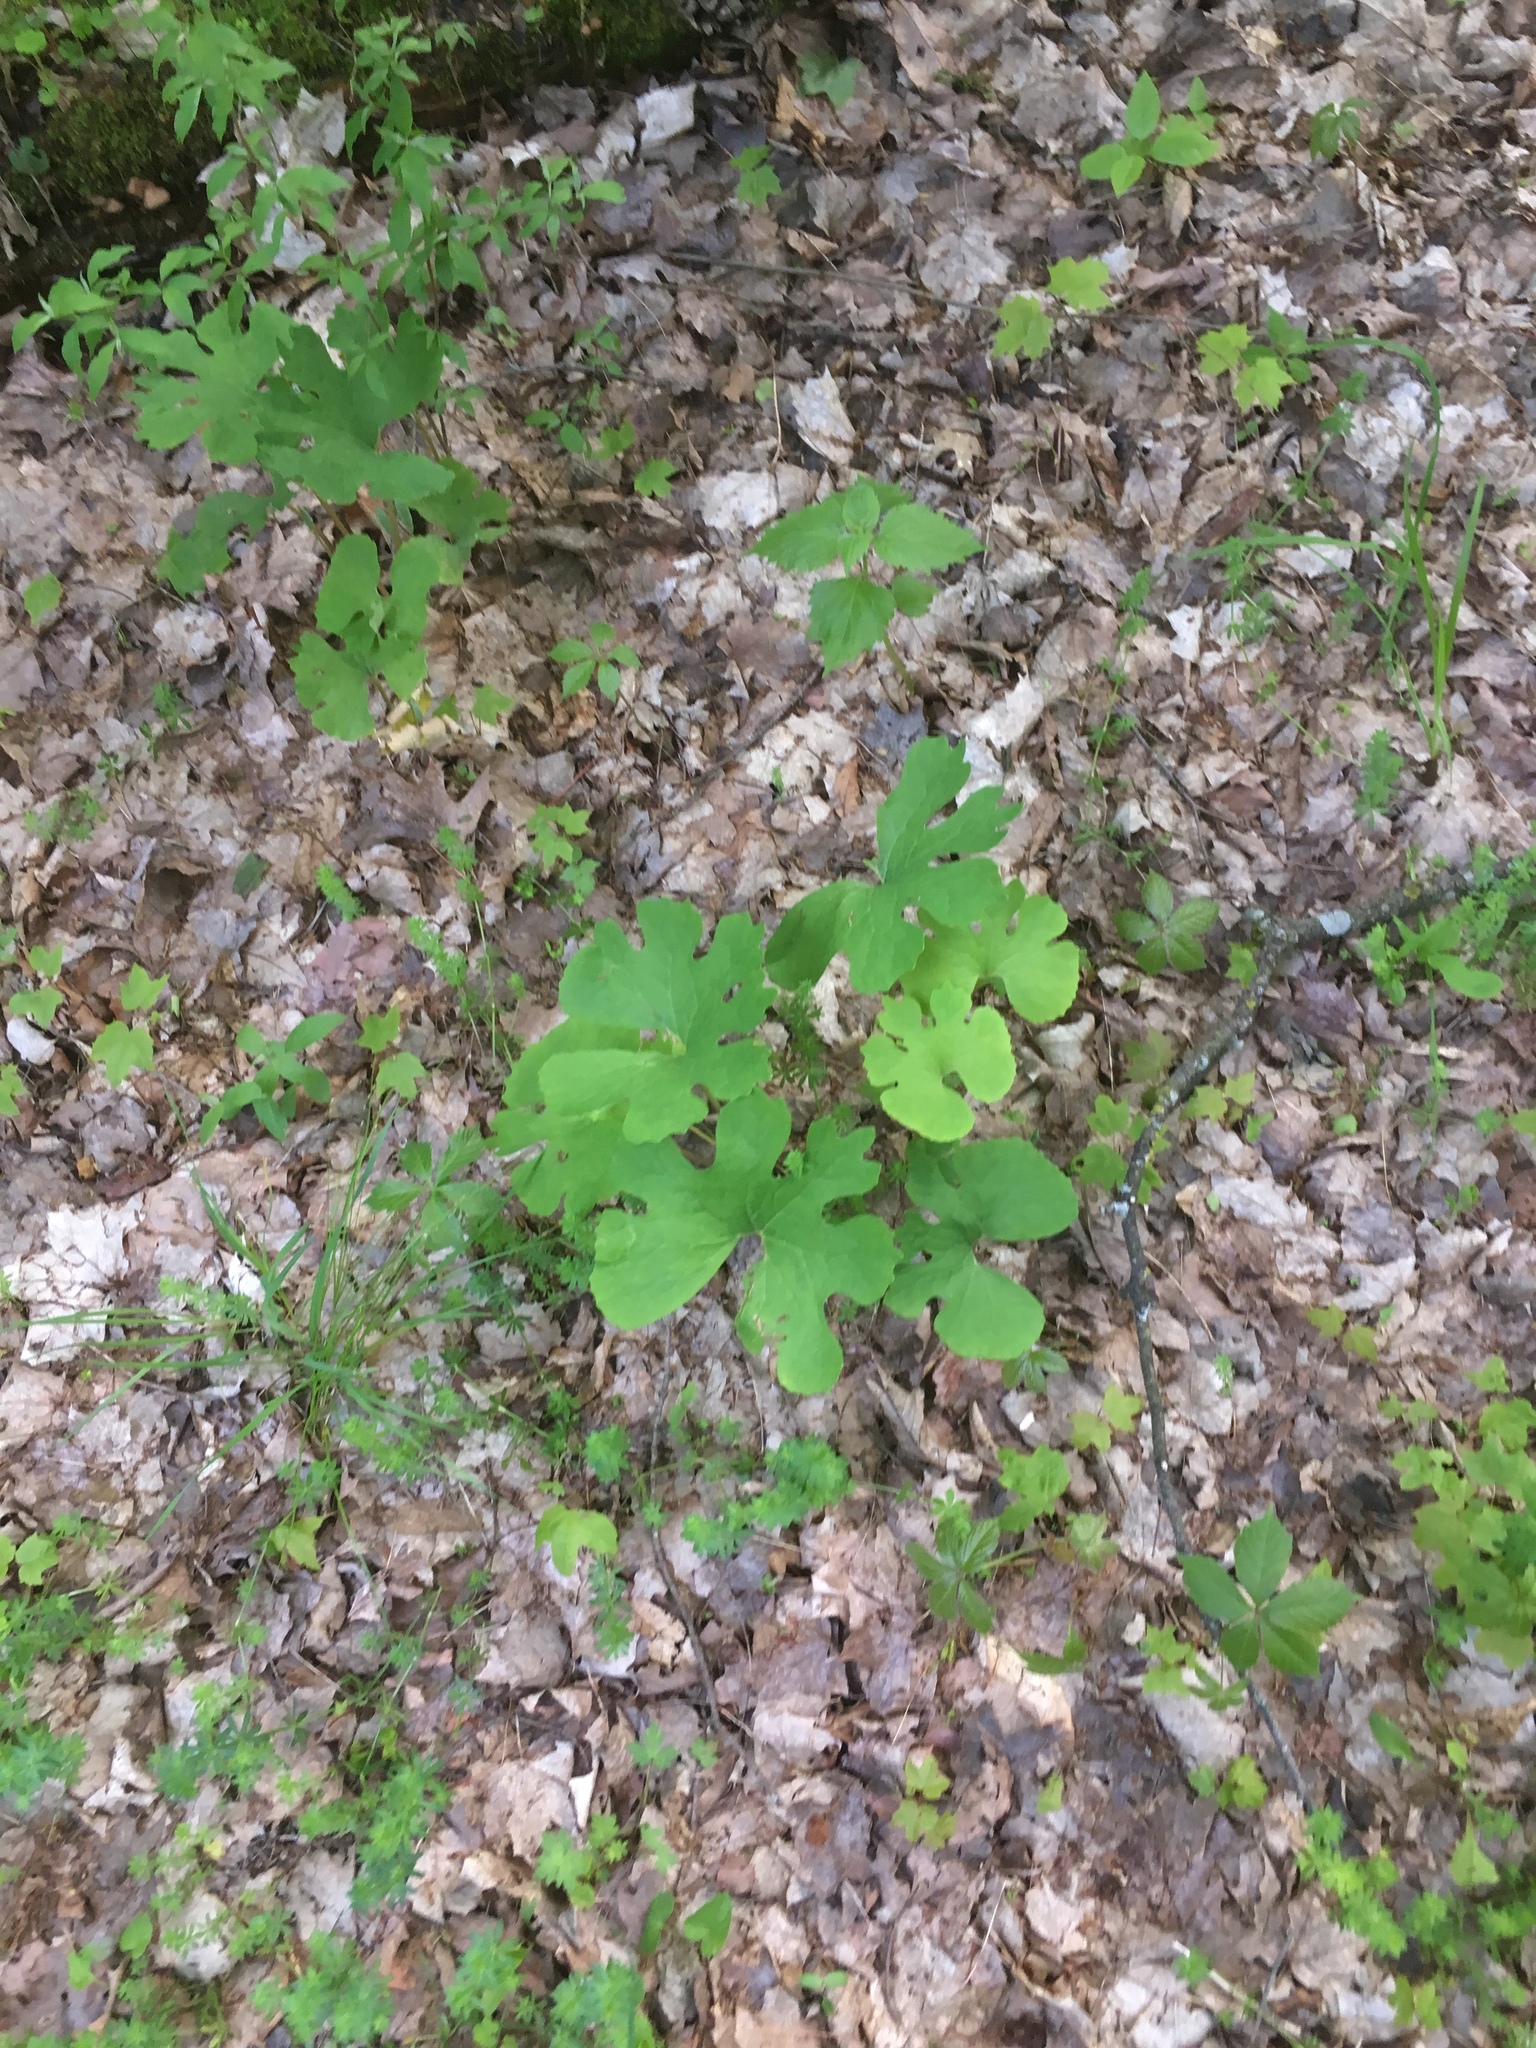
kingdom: Plantae
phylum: Tracheophyta
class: Magnoliopsida
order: Ranunculales
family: Papaveraceae
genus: Sanguinaria
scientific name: Sanguinaria canadensis
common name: Bloodroot
